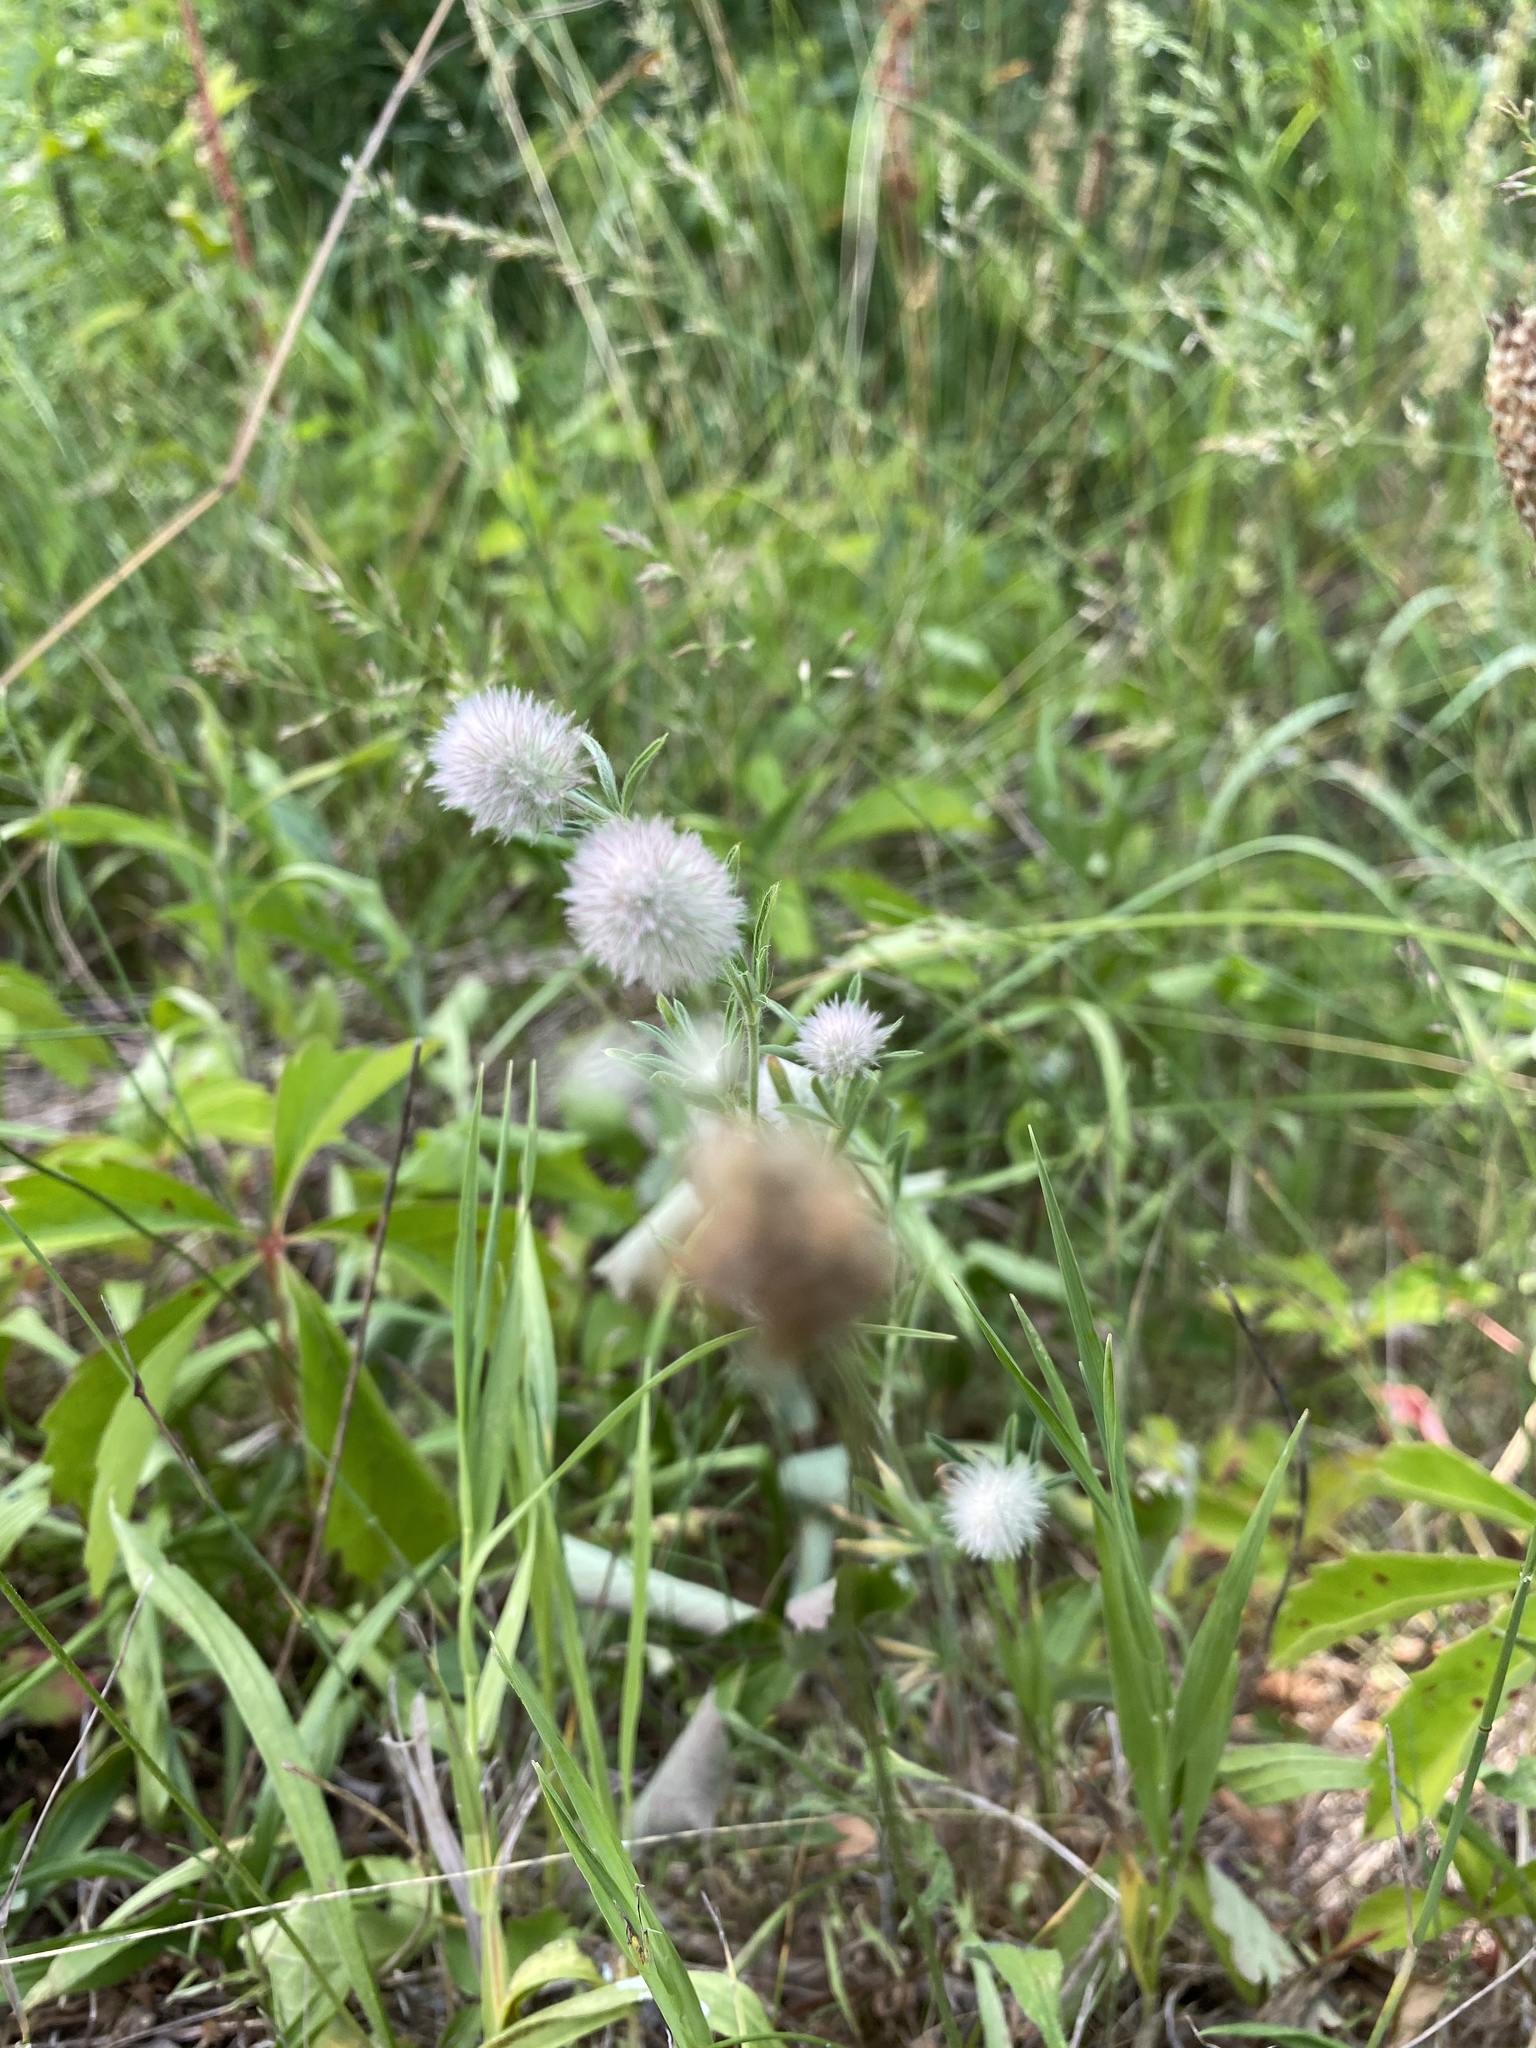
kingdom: Plantae
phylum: Tracheophyta
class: Magnoliopsida
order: Fabales
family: Fabaceae
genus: Trifolium
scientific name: Trifolium arvense
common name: Hare's-foot clover
